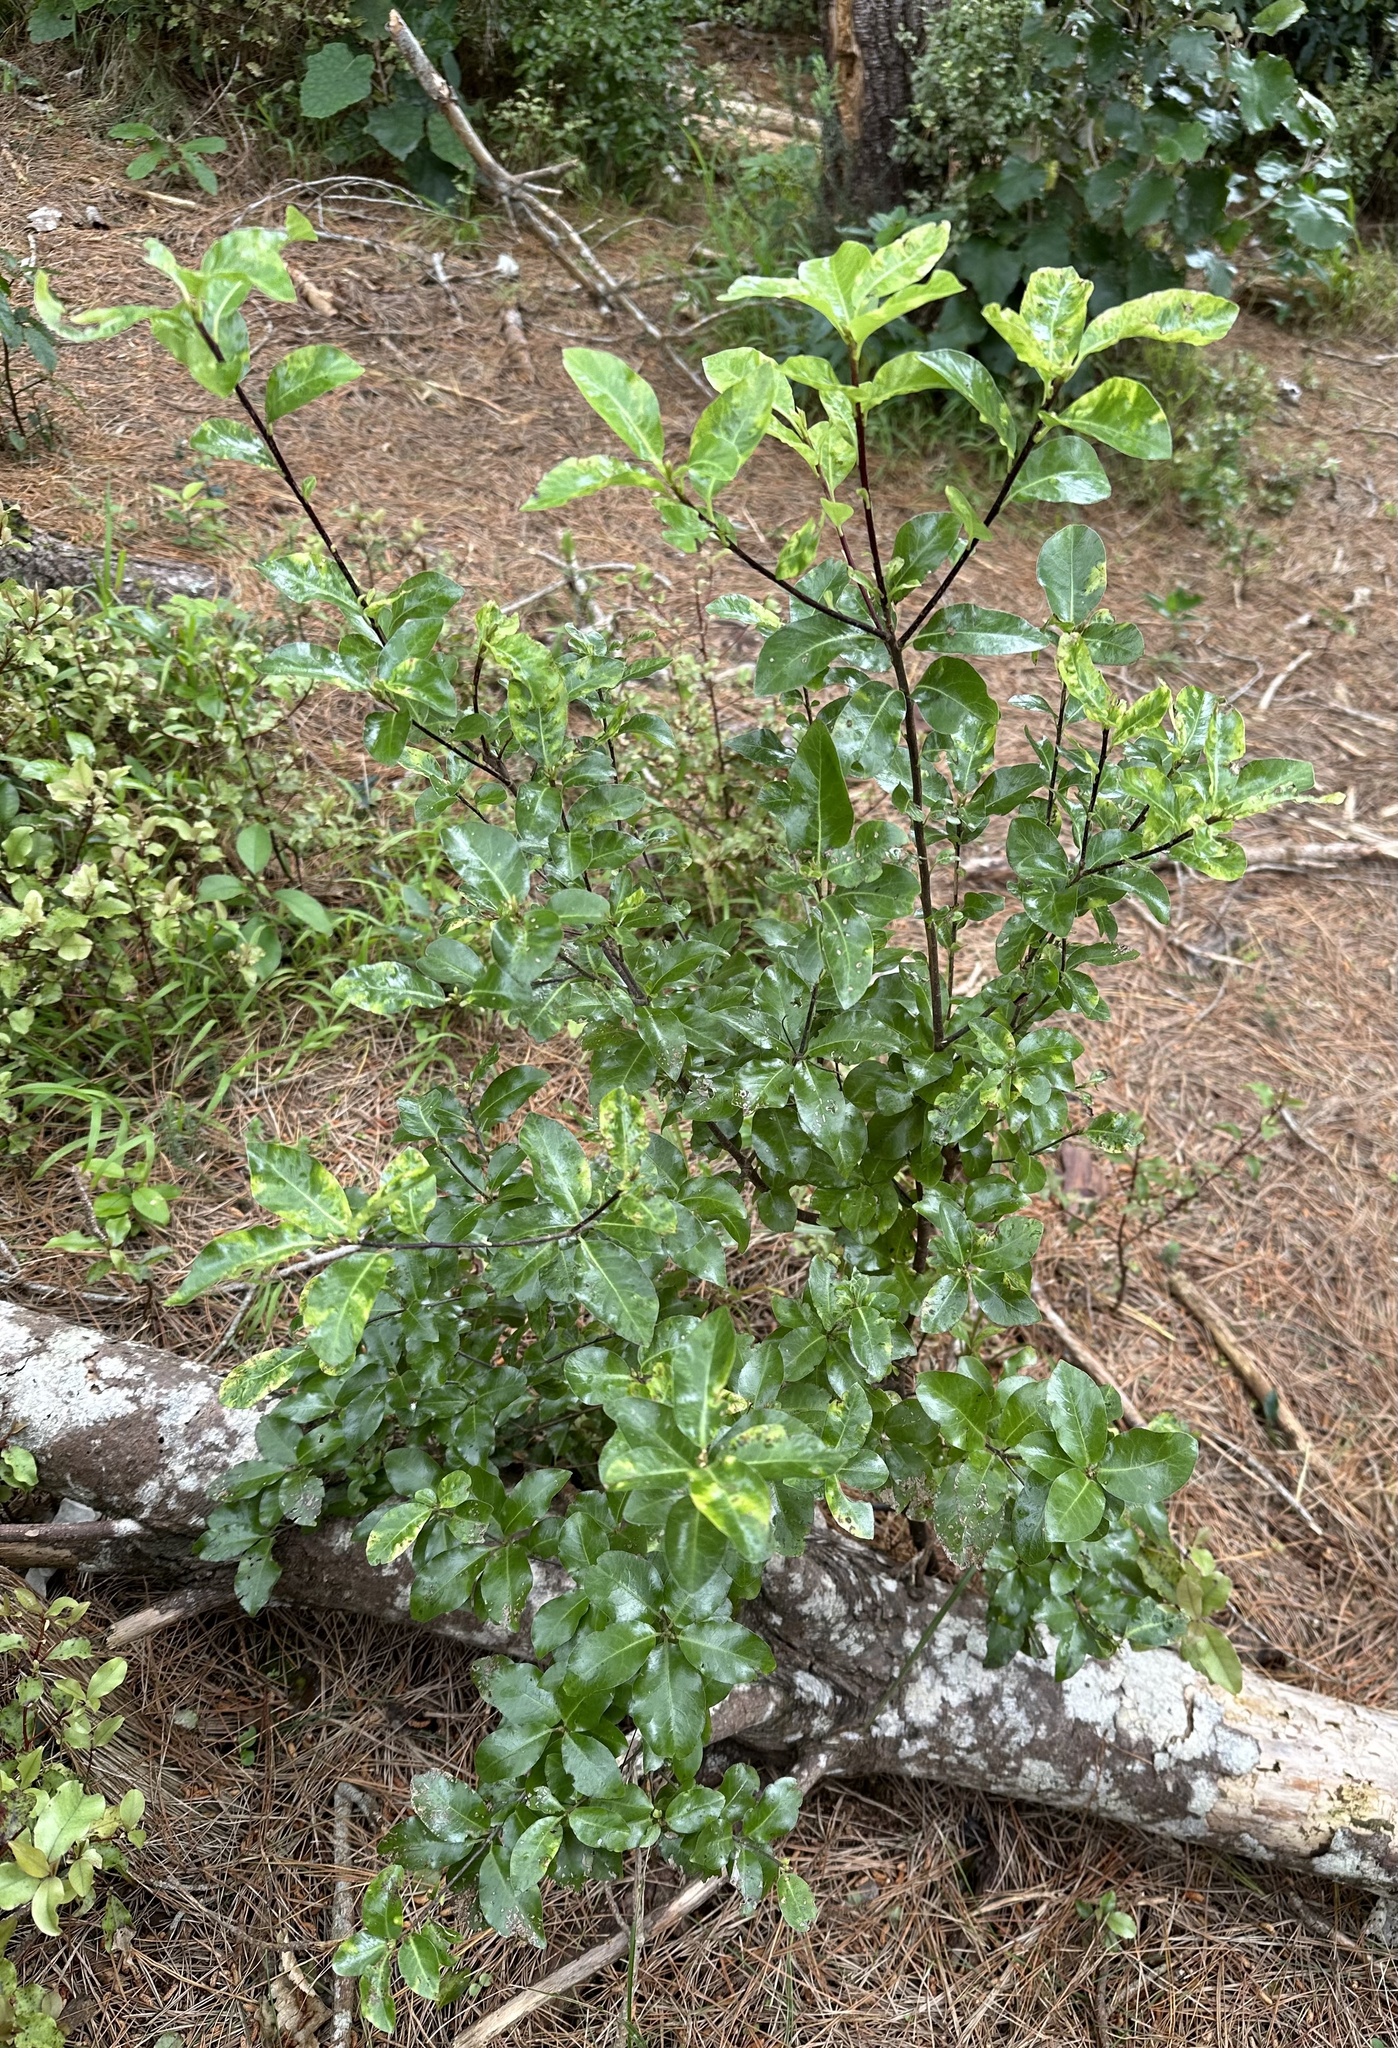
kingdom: Plantae
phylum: Tracheophyta
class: Magnoliopsida
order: Apiales
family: Pittosporaceae
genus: Pittosporum
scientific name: Pittosporum tenuifolium
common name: Kohuhu
